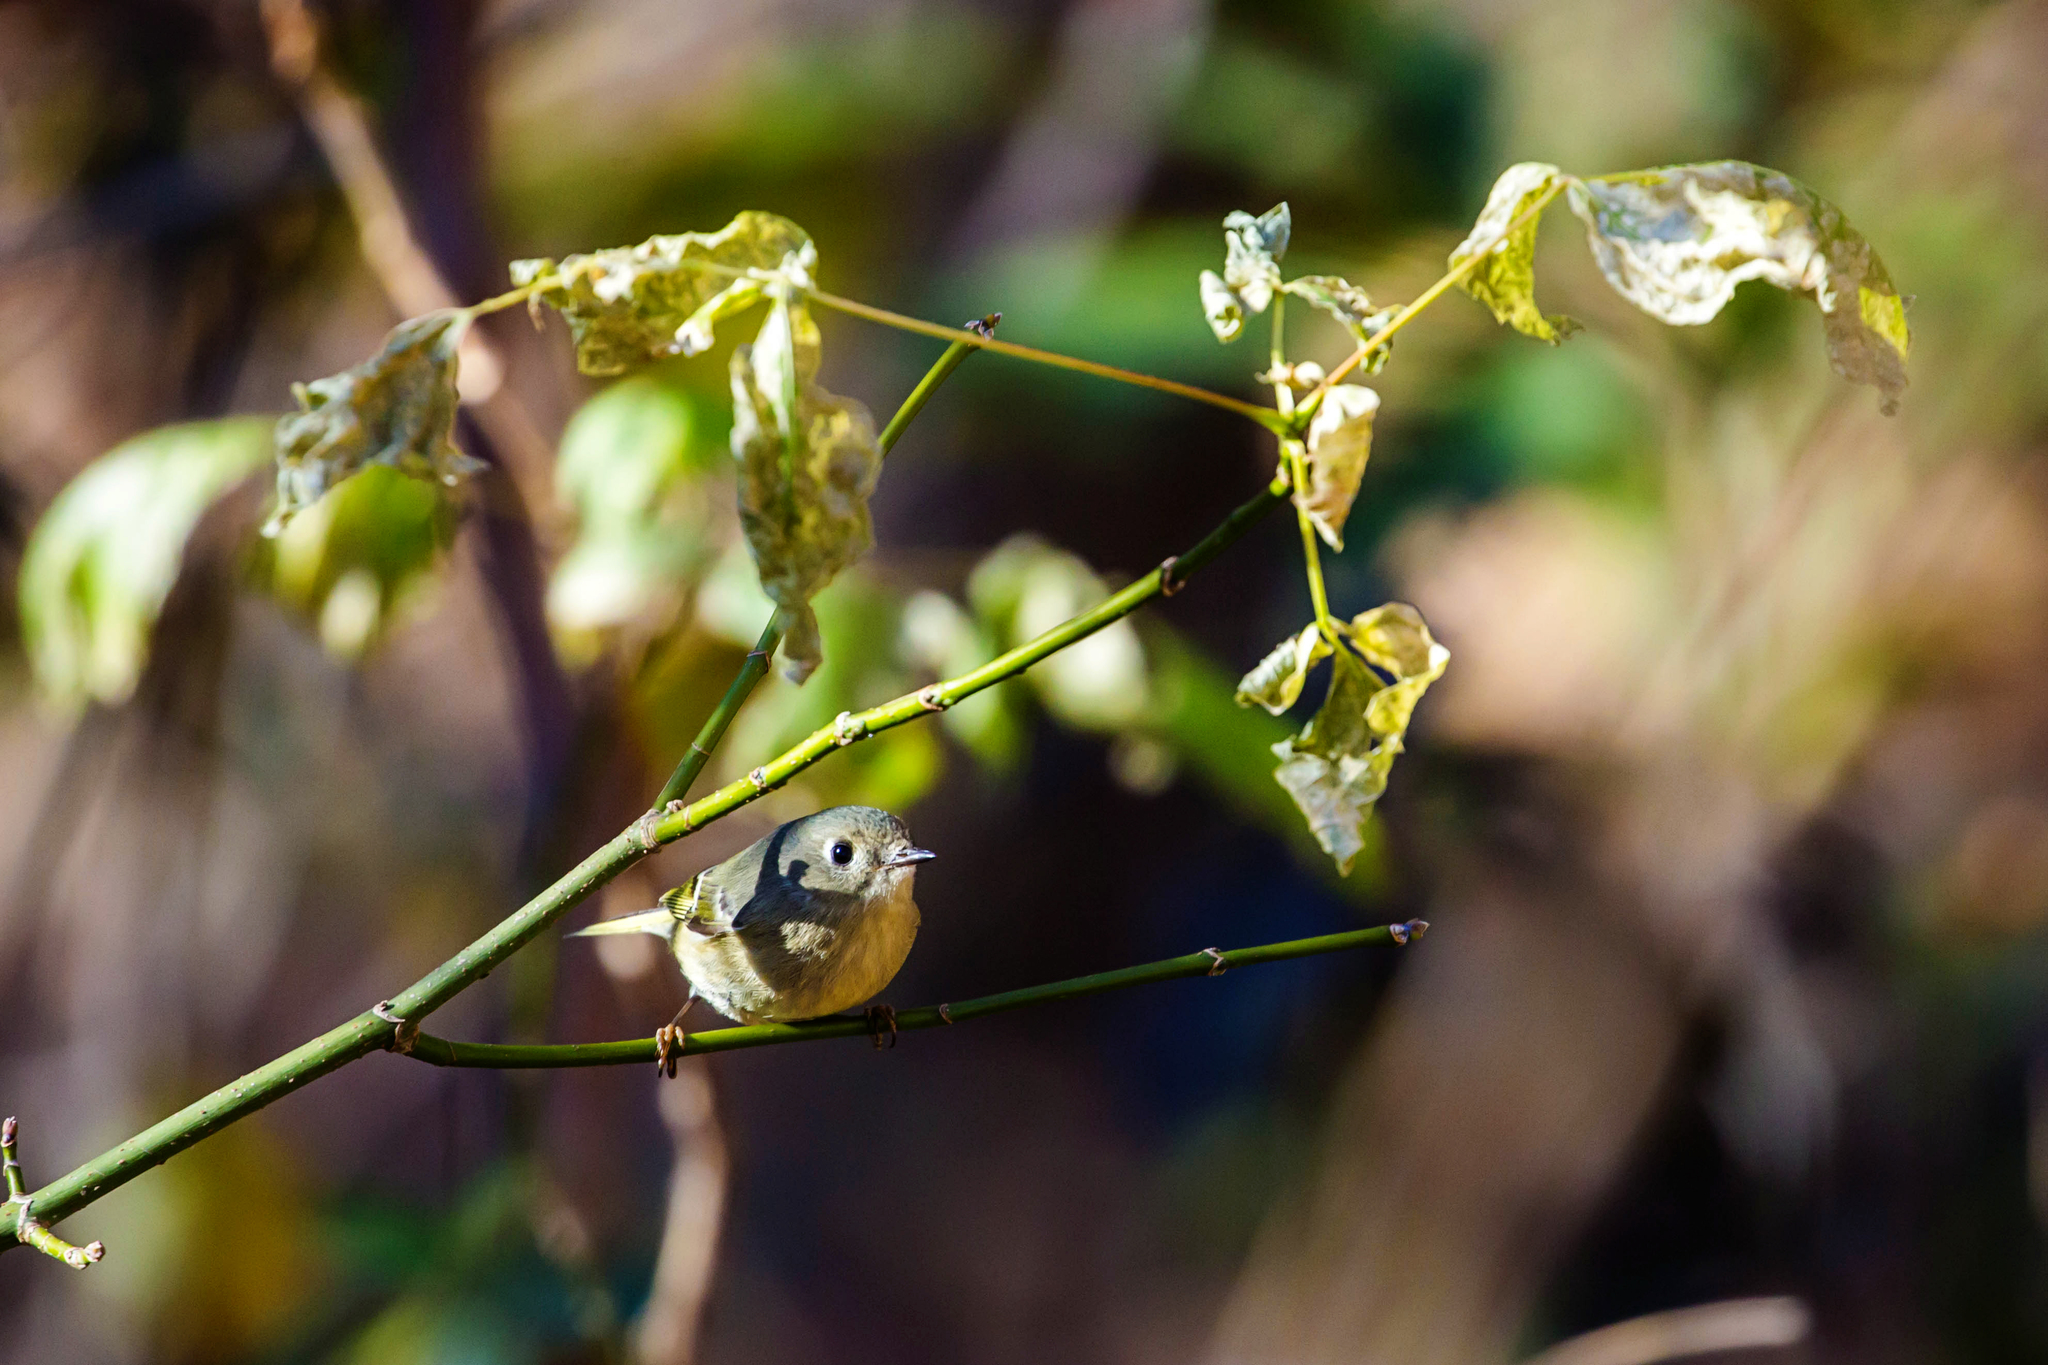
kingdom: Animalia
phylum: Chordata
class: Aves
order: Passeriformes
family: Regulidae
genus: Regulus
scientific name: Regulus calendula
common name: Ruby-crowned kinglet
